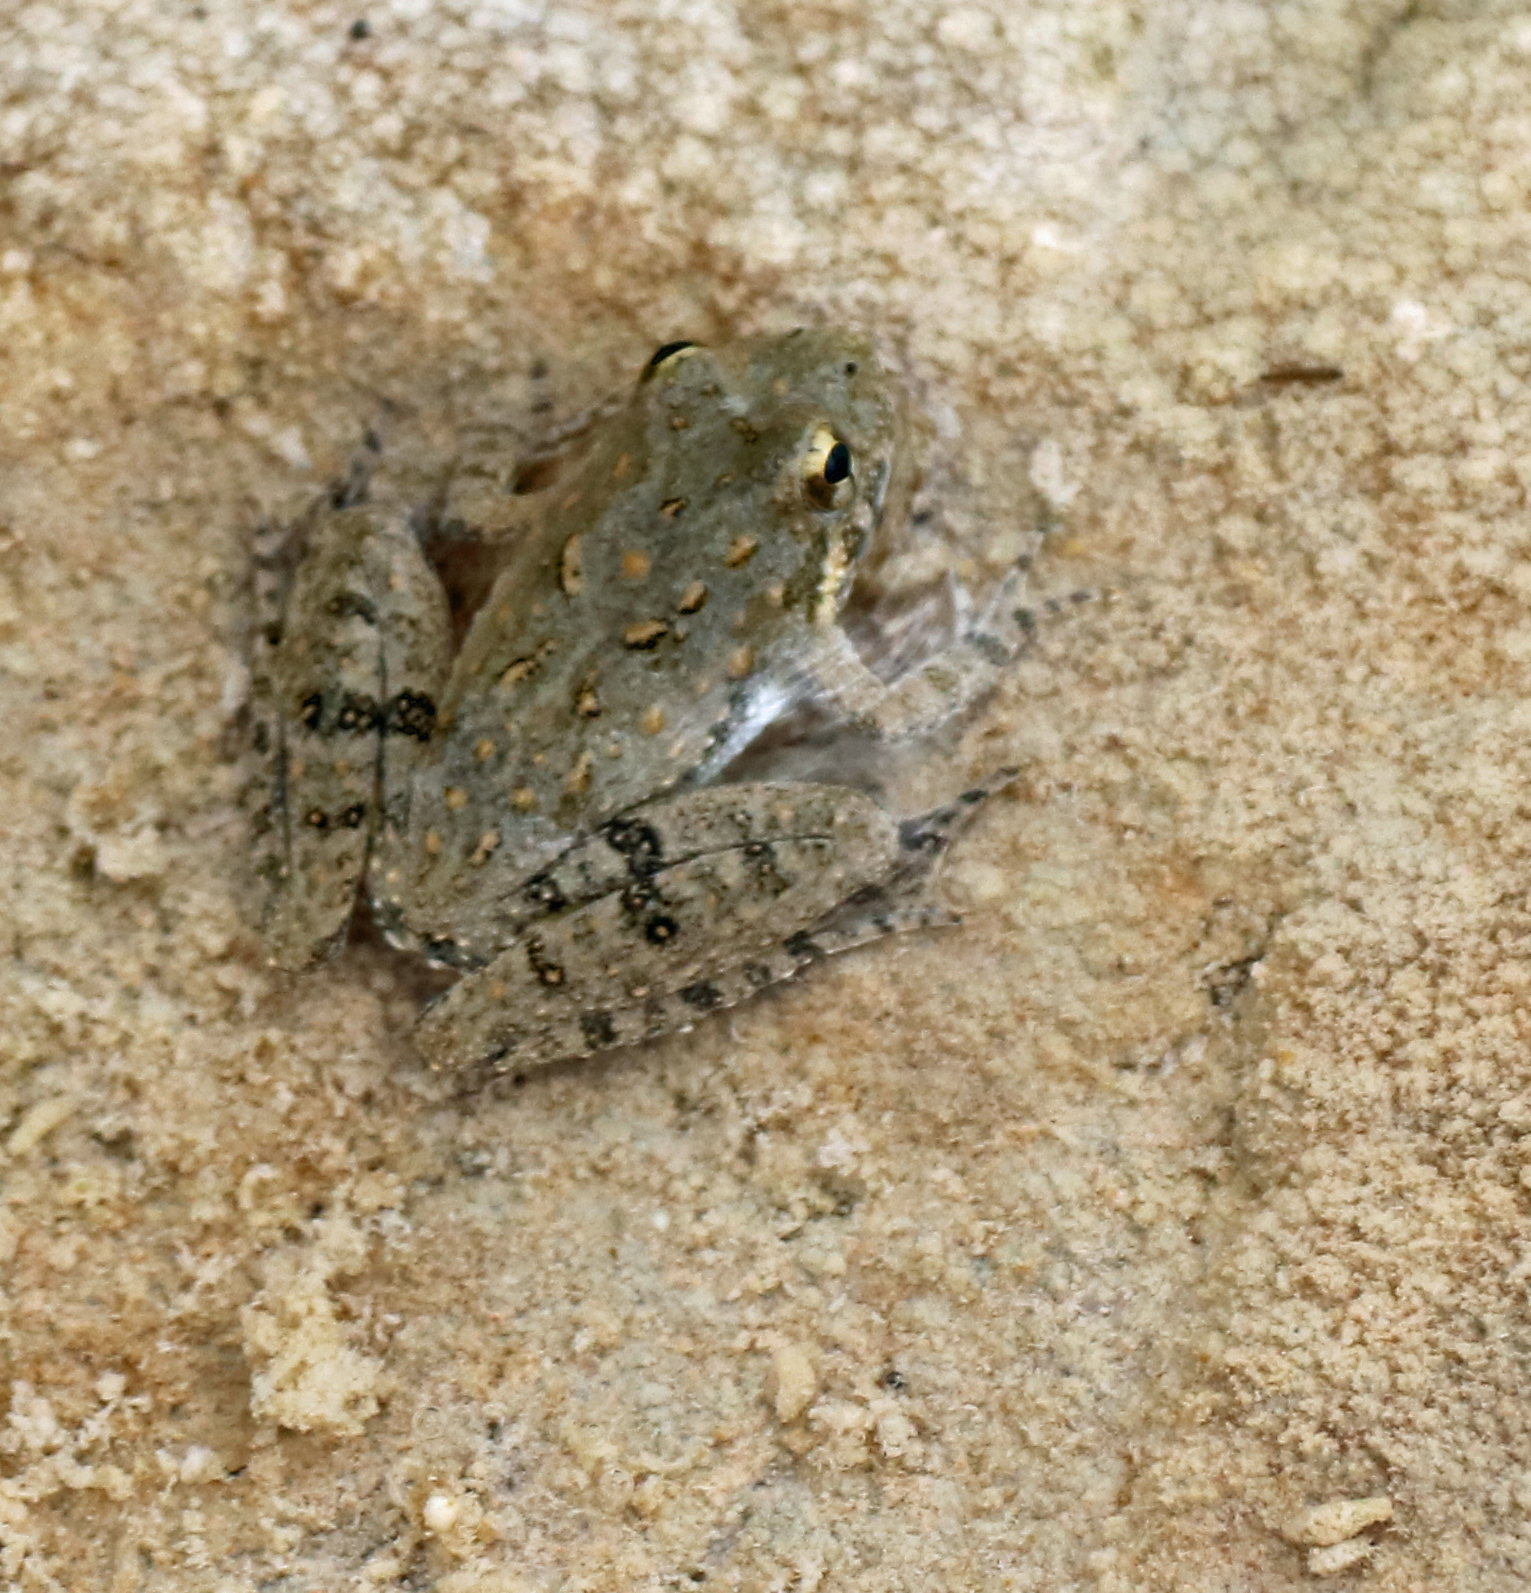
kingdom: Animalia
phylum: Chordata
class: Amphibia
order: Anura
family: Hylidae
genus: Acris
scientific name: Acris blanchardi
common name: Blanchard's cricket frog
